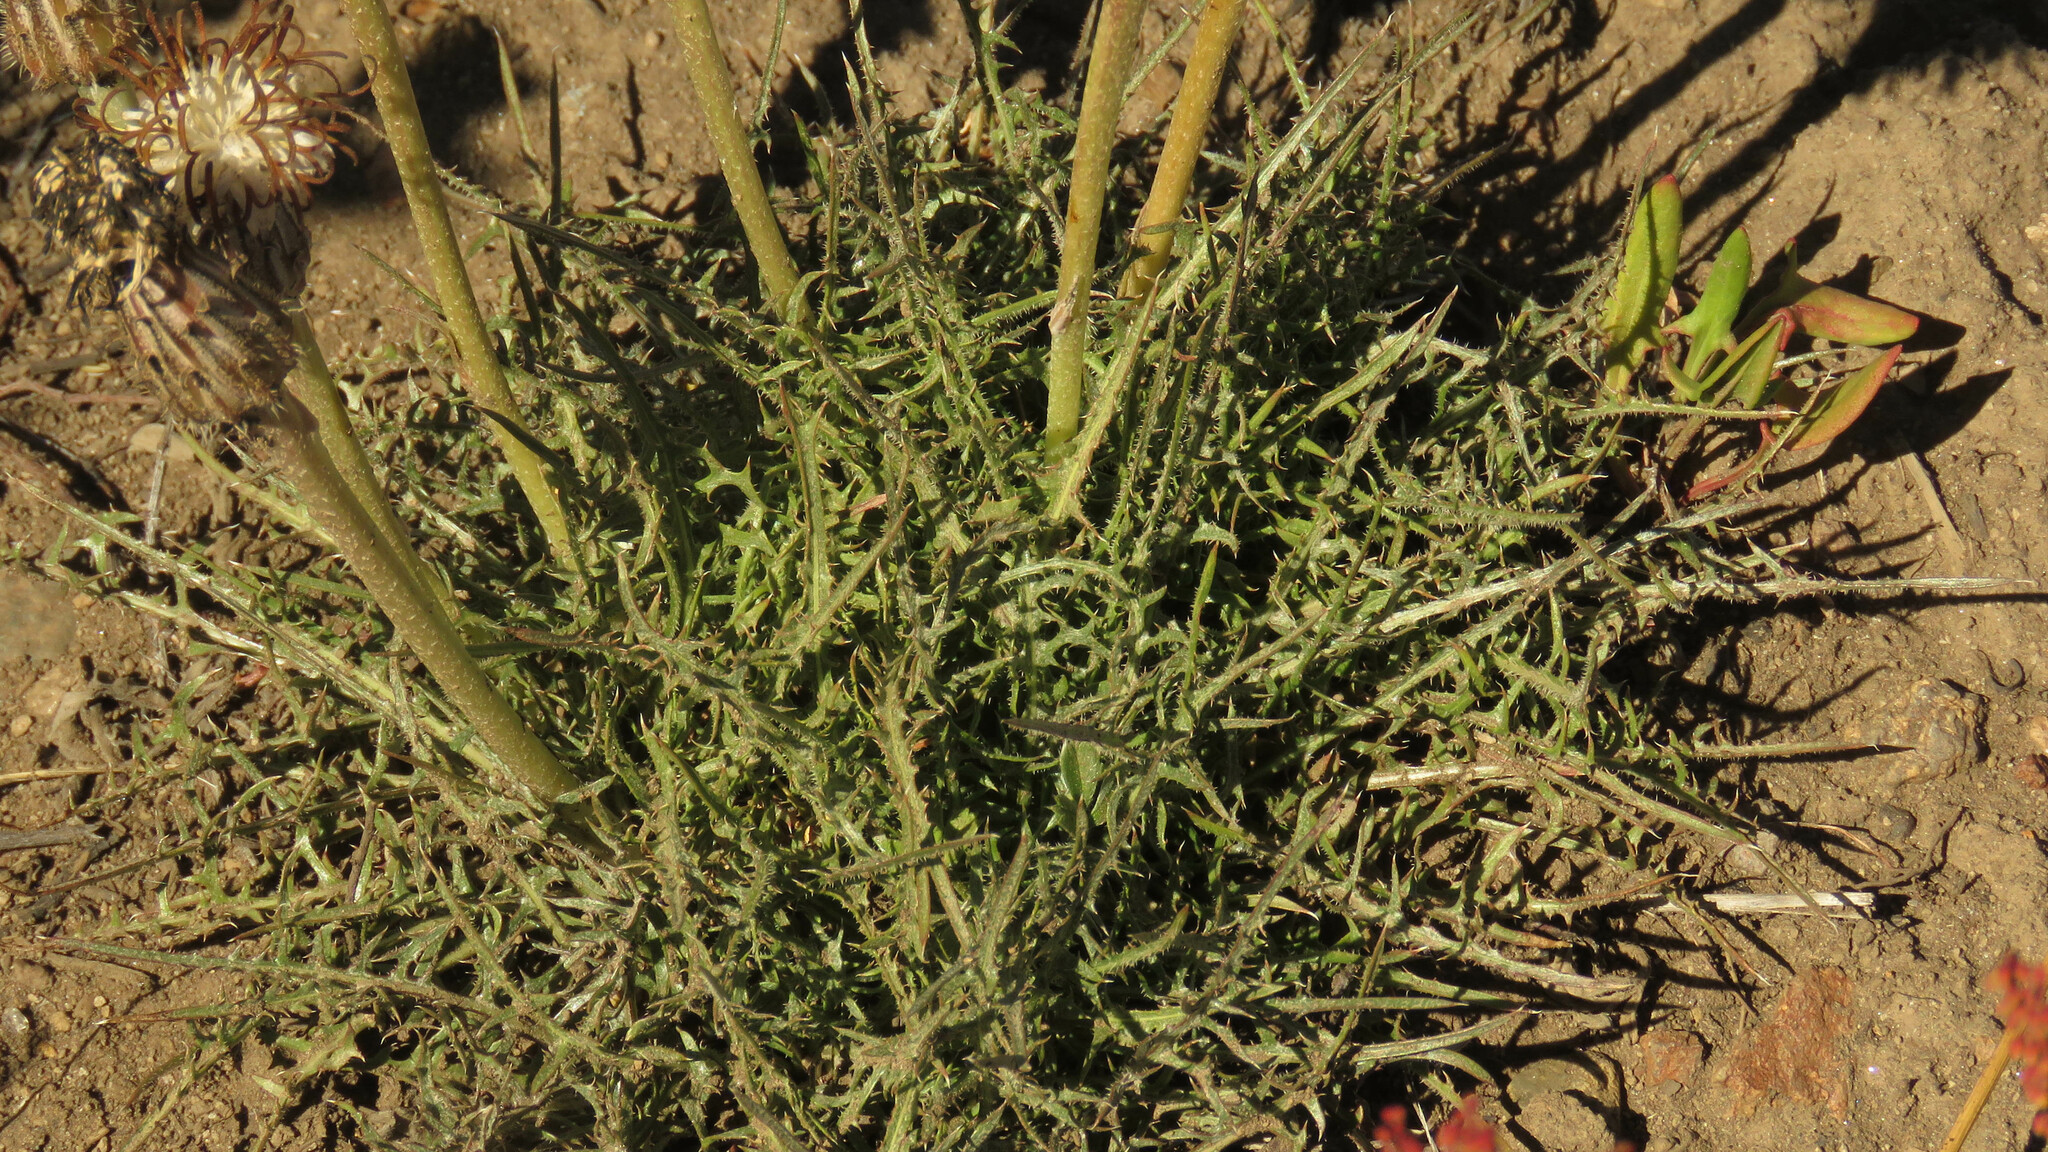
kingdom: Plantae
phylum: Tracheophyta
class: Magnoliopsida
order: Asterales
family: Asteraceae
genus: Hypochaeris
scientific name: Hypochaeris incana
